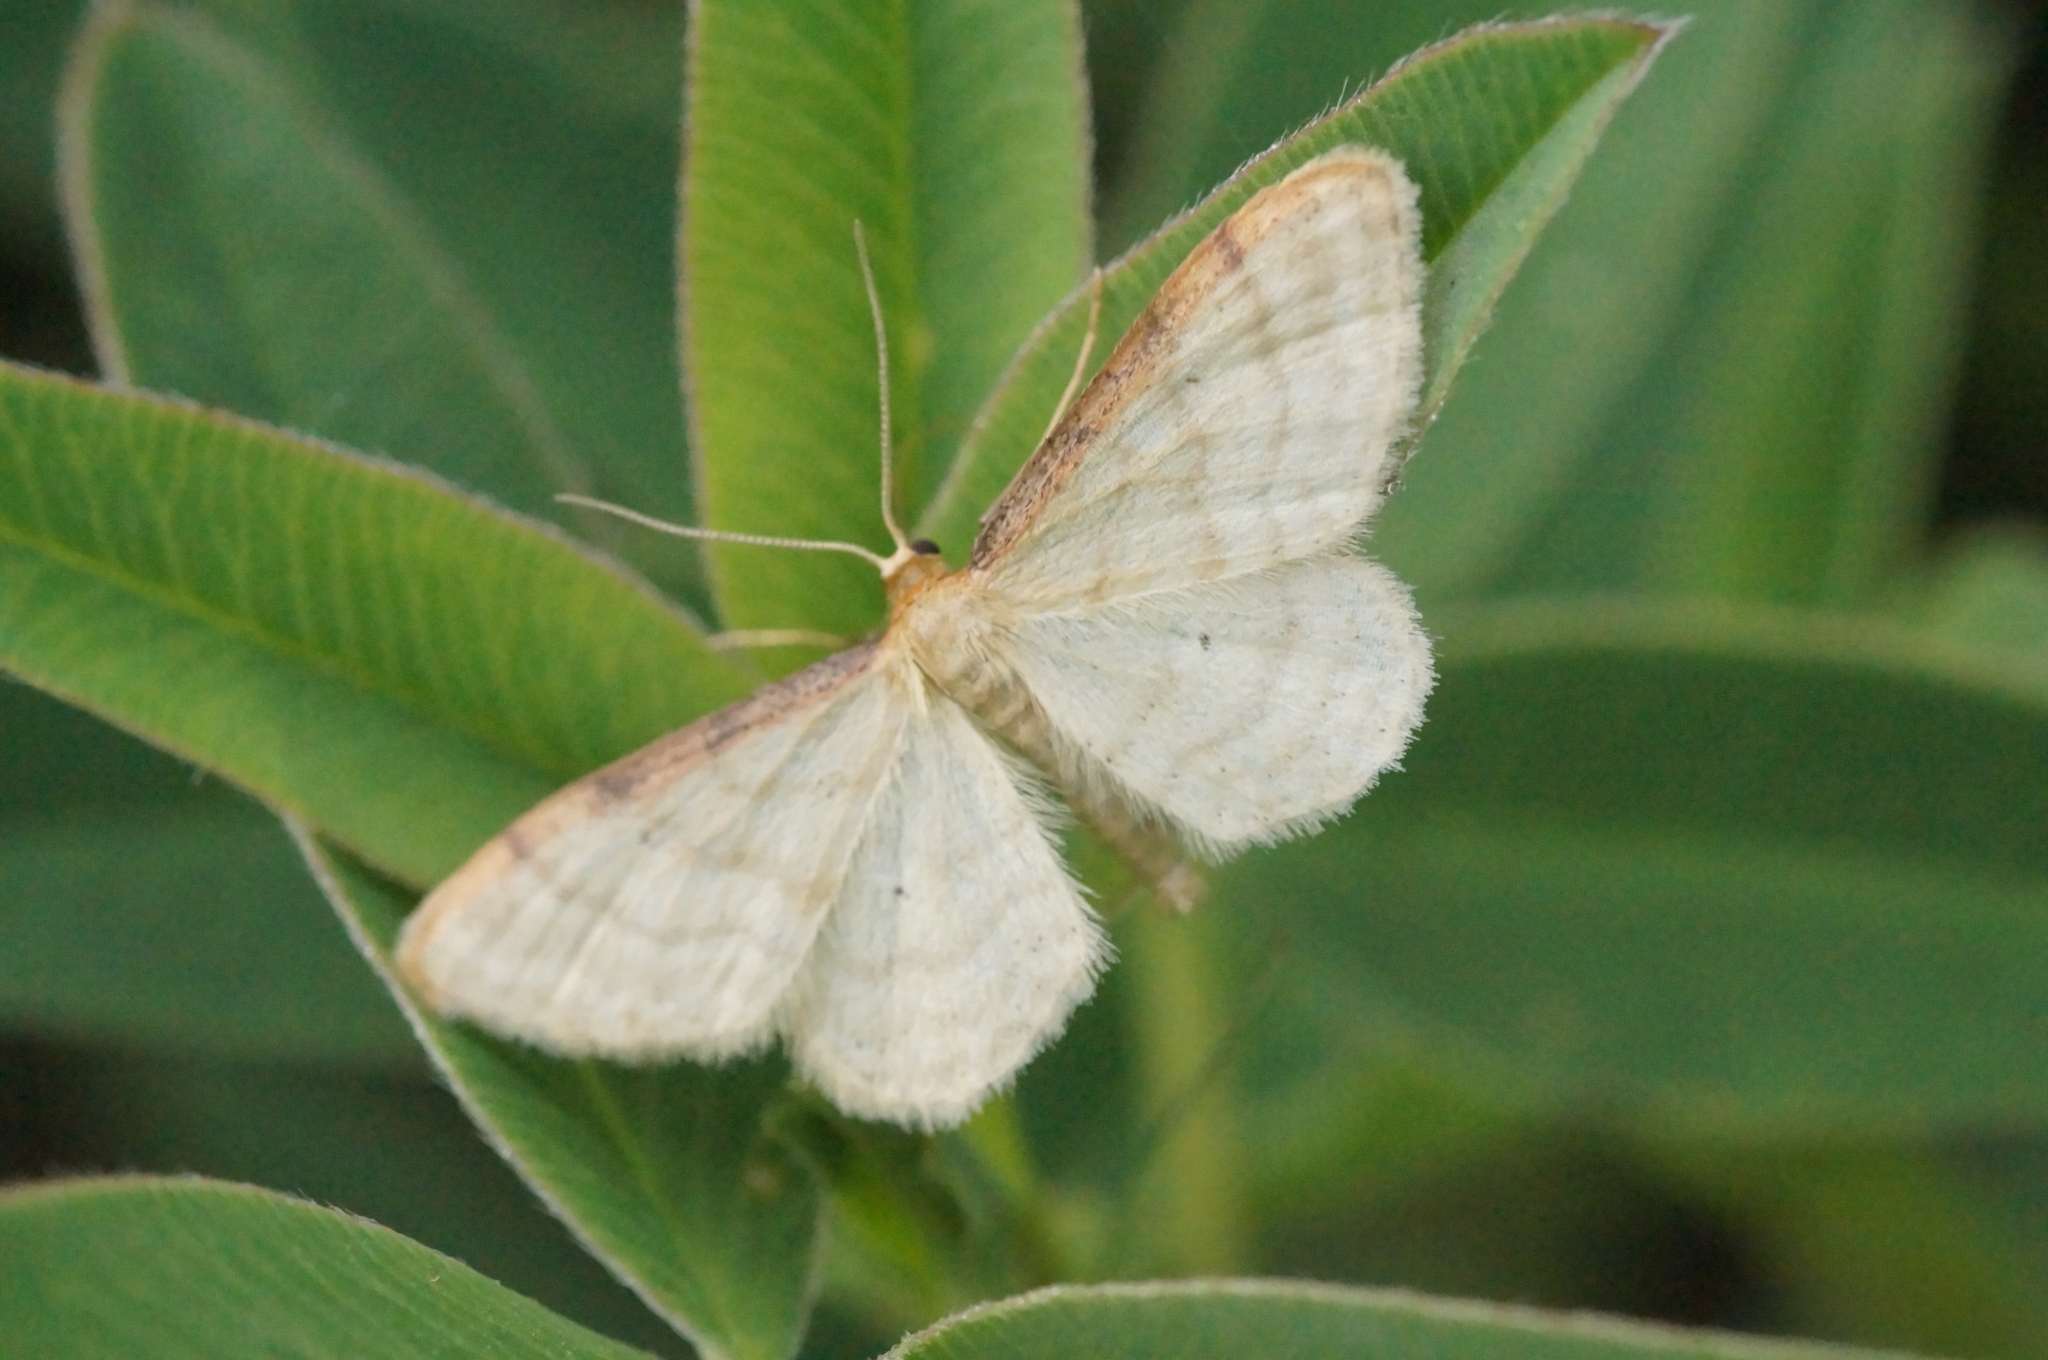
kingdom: Animalia
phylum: Arthropoda
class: Insecta
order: Lepidoptera
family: Geometridae
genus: Idaea
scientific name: Idaea humiliata
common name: Isle of wight wave
